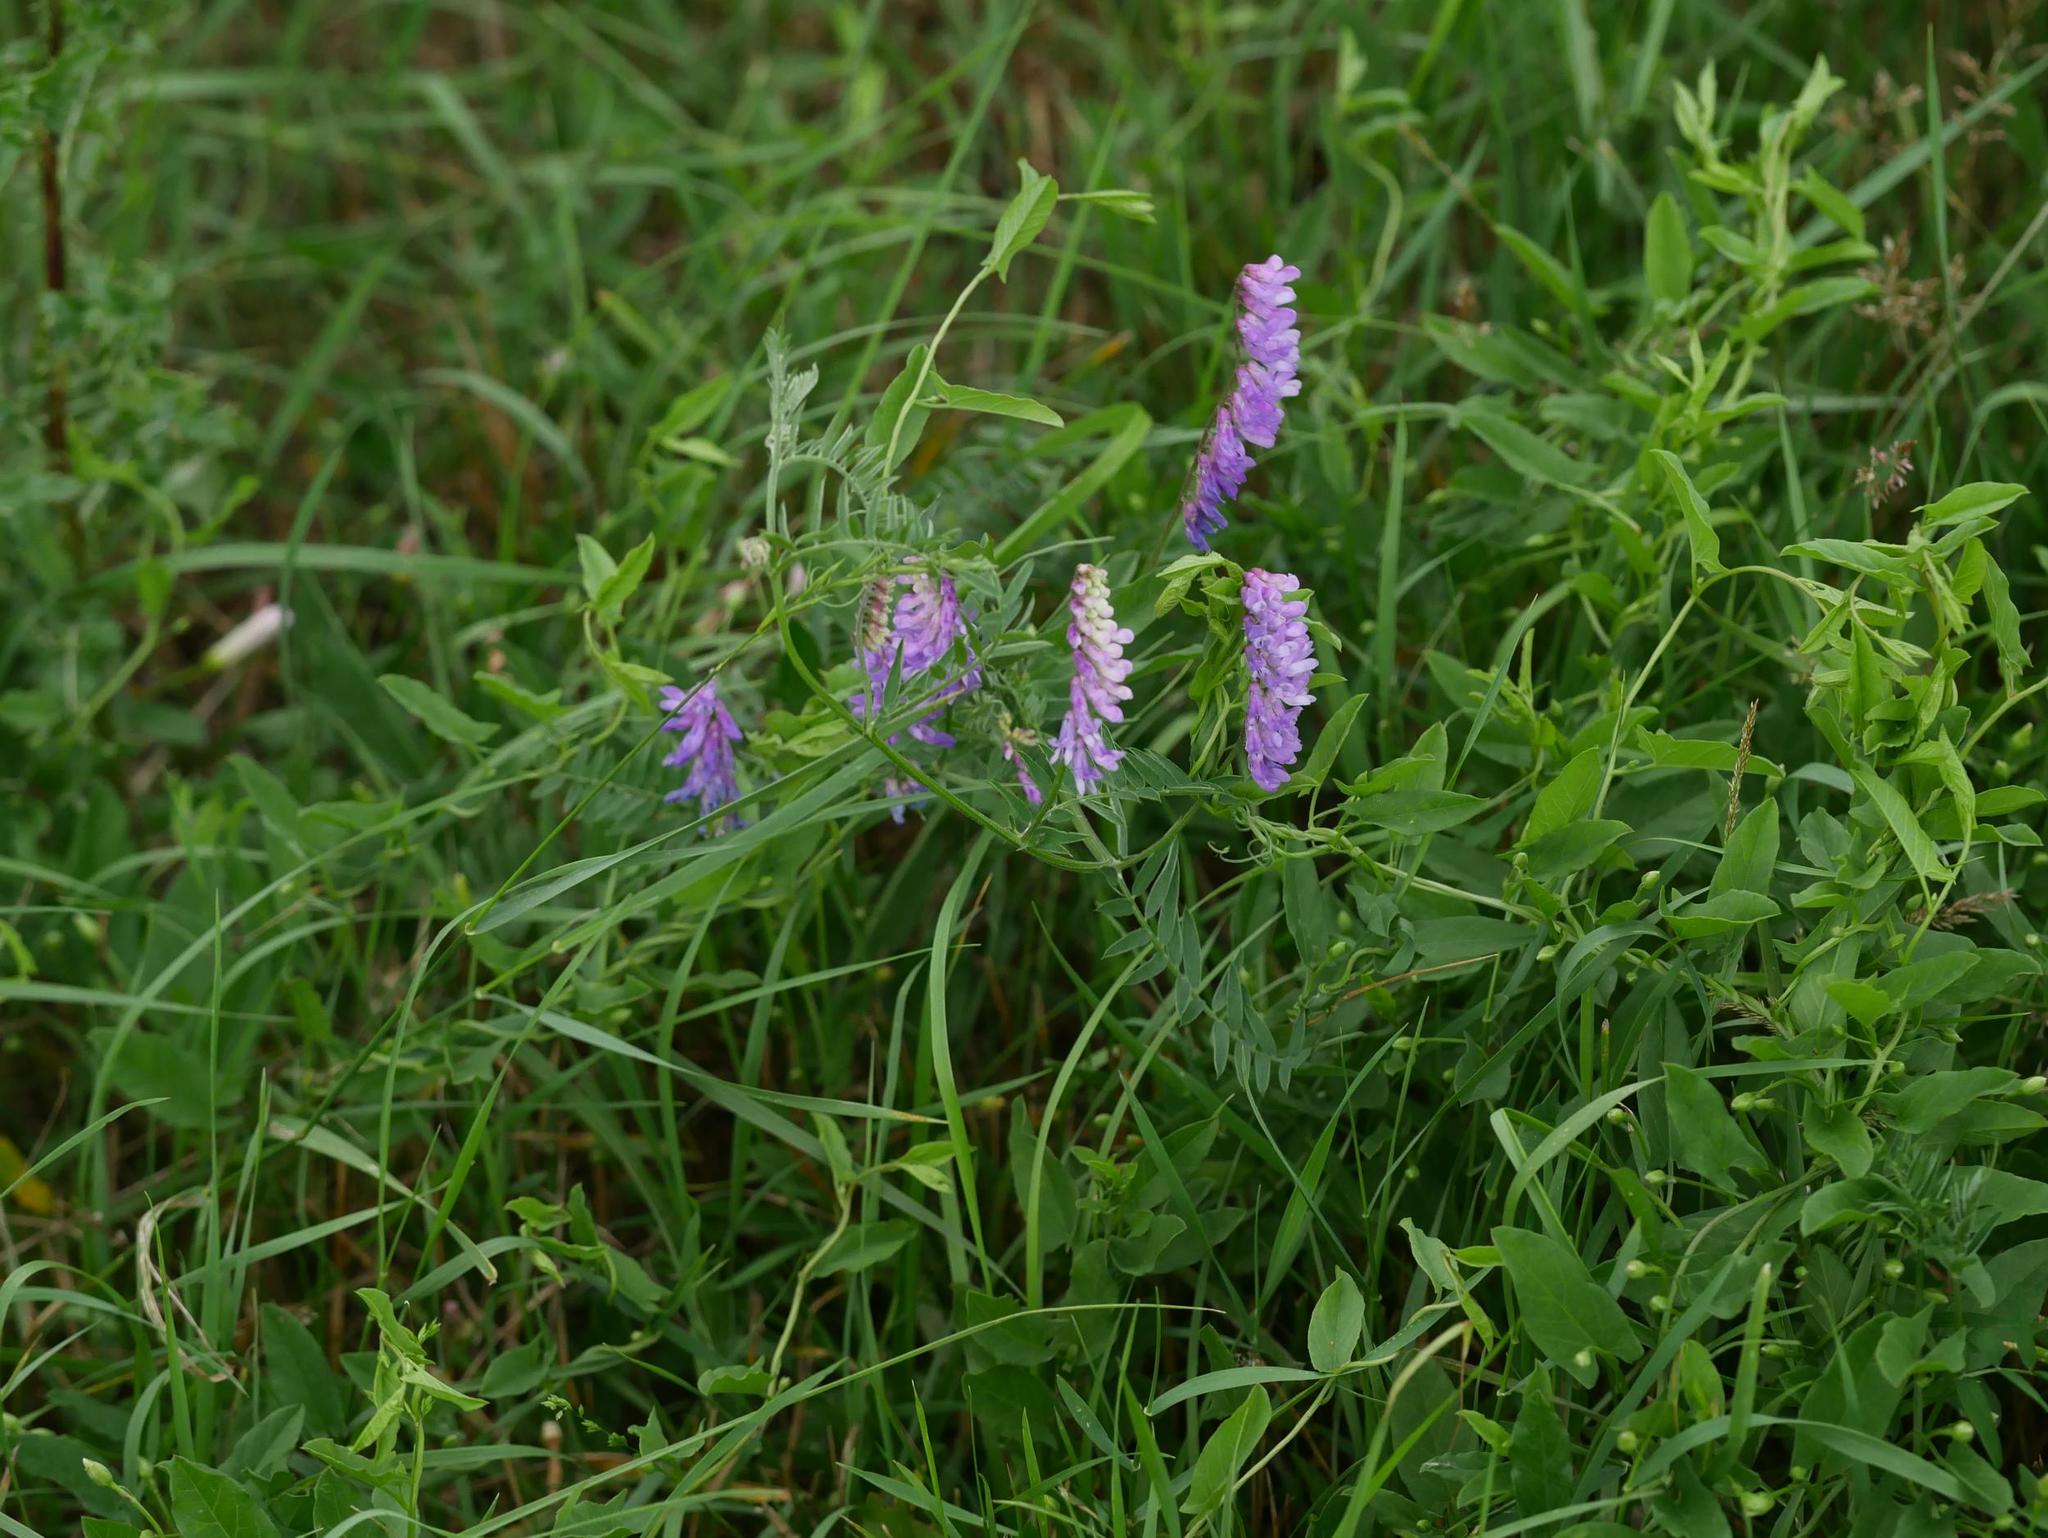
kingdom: Plantae
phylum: Tracheophyta
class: Magnoliopsida
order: Fabales
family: Fabaceae
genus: Vicia
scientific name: Vicia cracca
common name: Bird vetch
